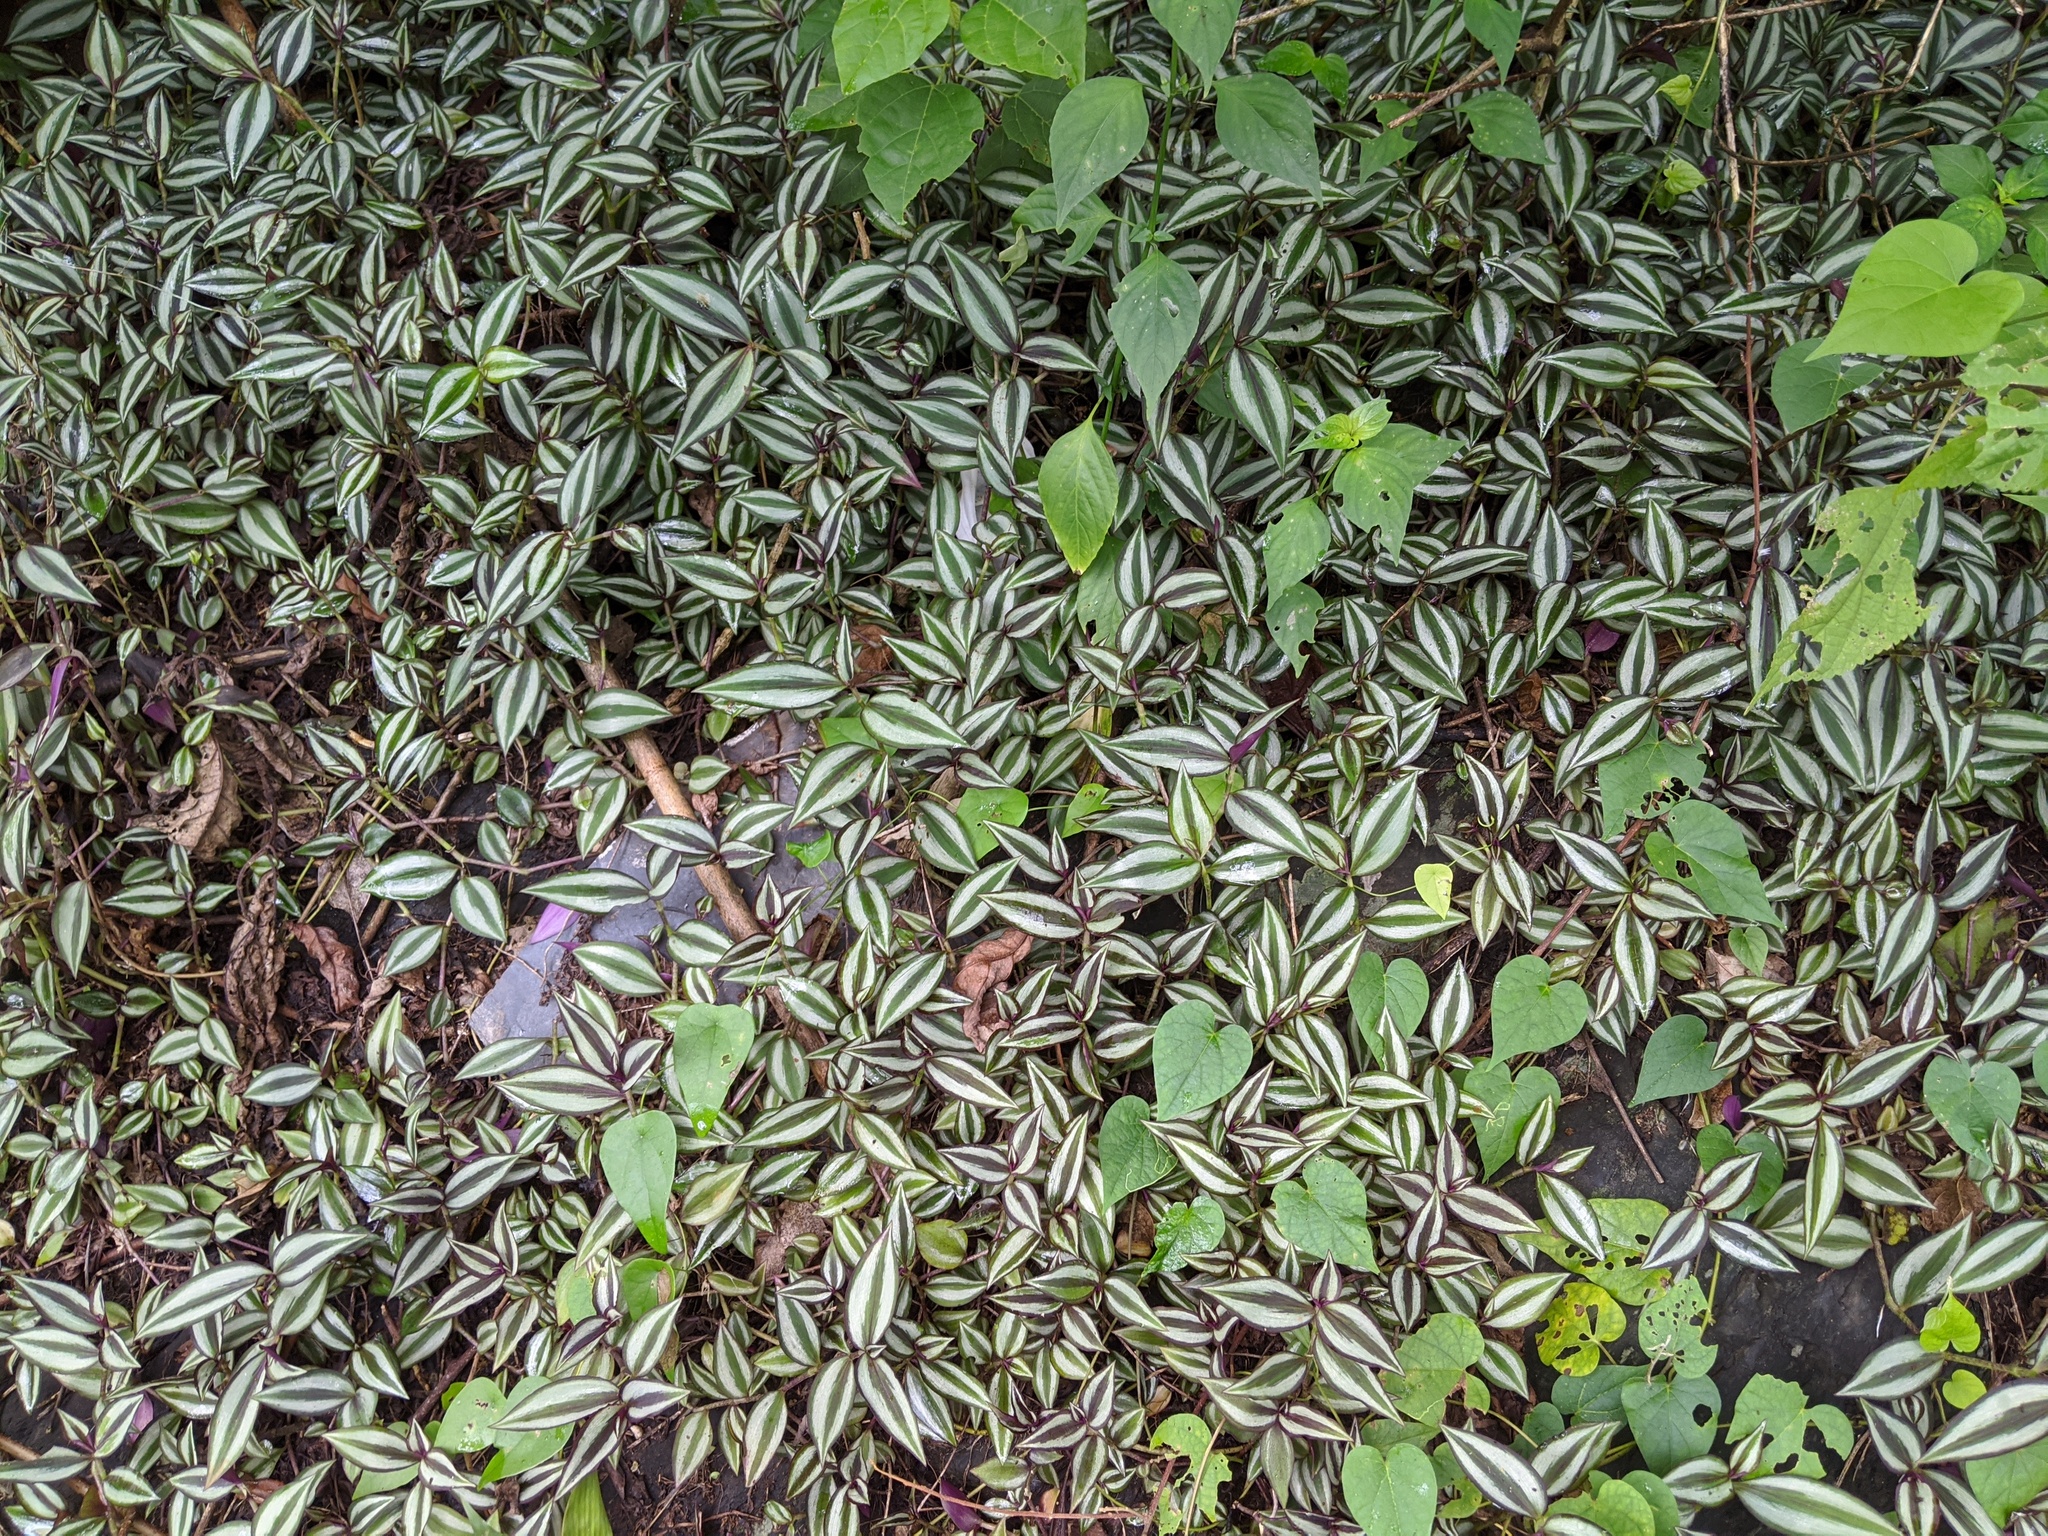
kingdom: Plantae
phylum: Tracheophyta
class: Liliopsida
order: Commelinales
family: Commelinaceae
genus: Tradescantia
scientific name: Tradescantia zebrina
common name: Inchplant
